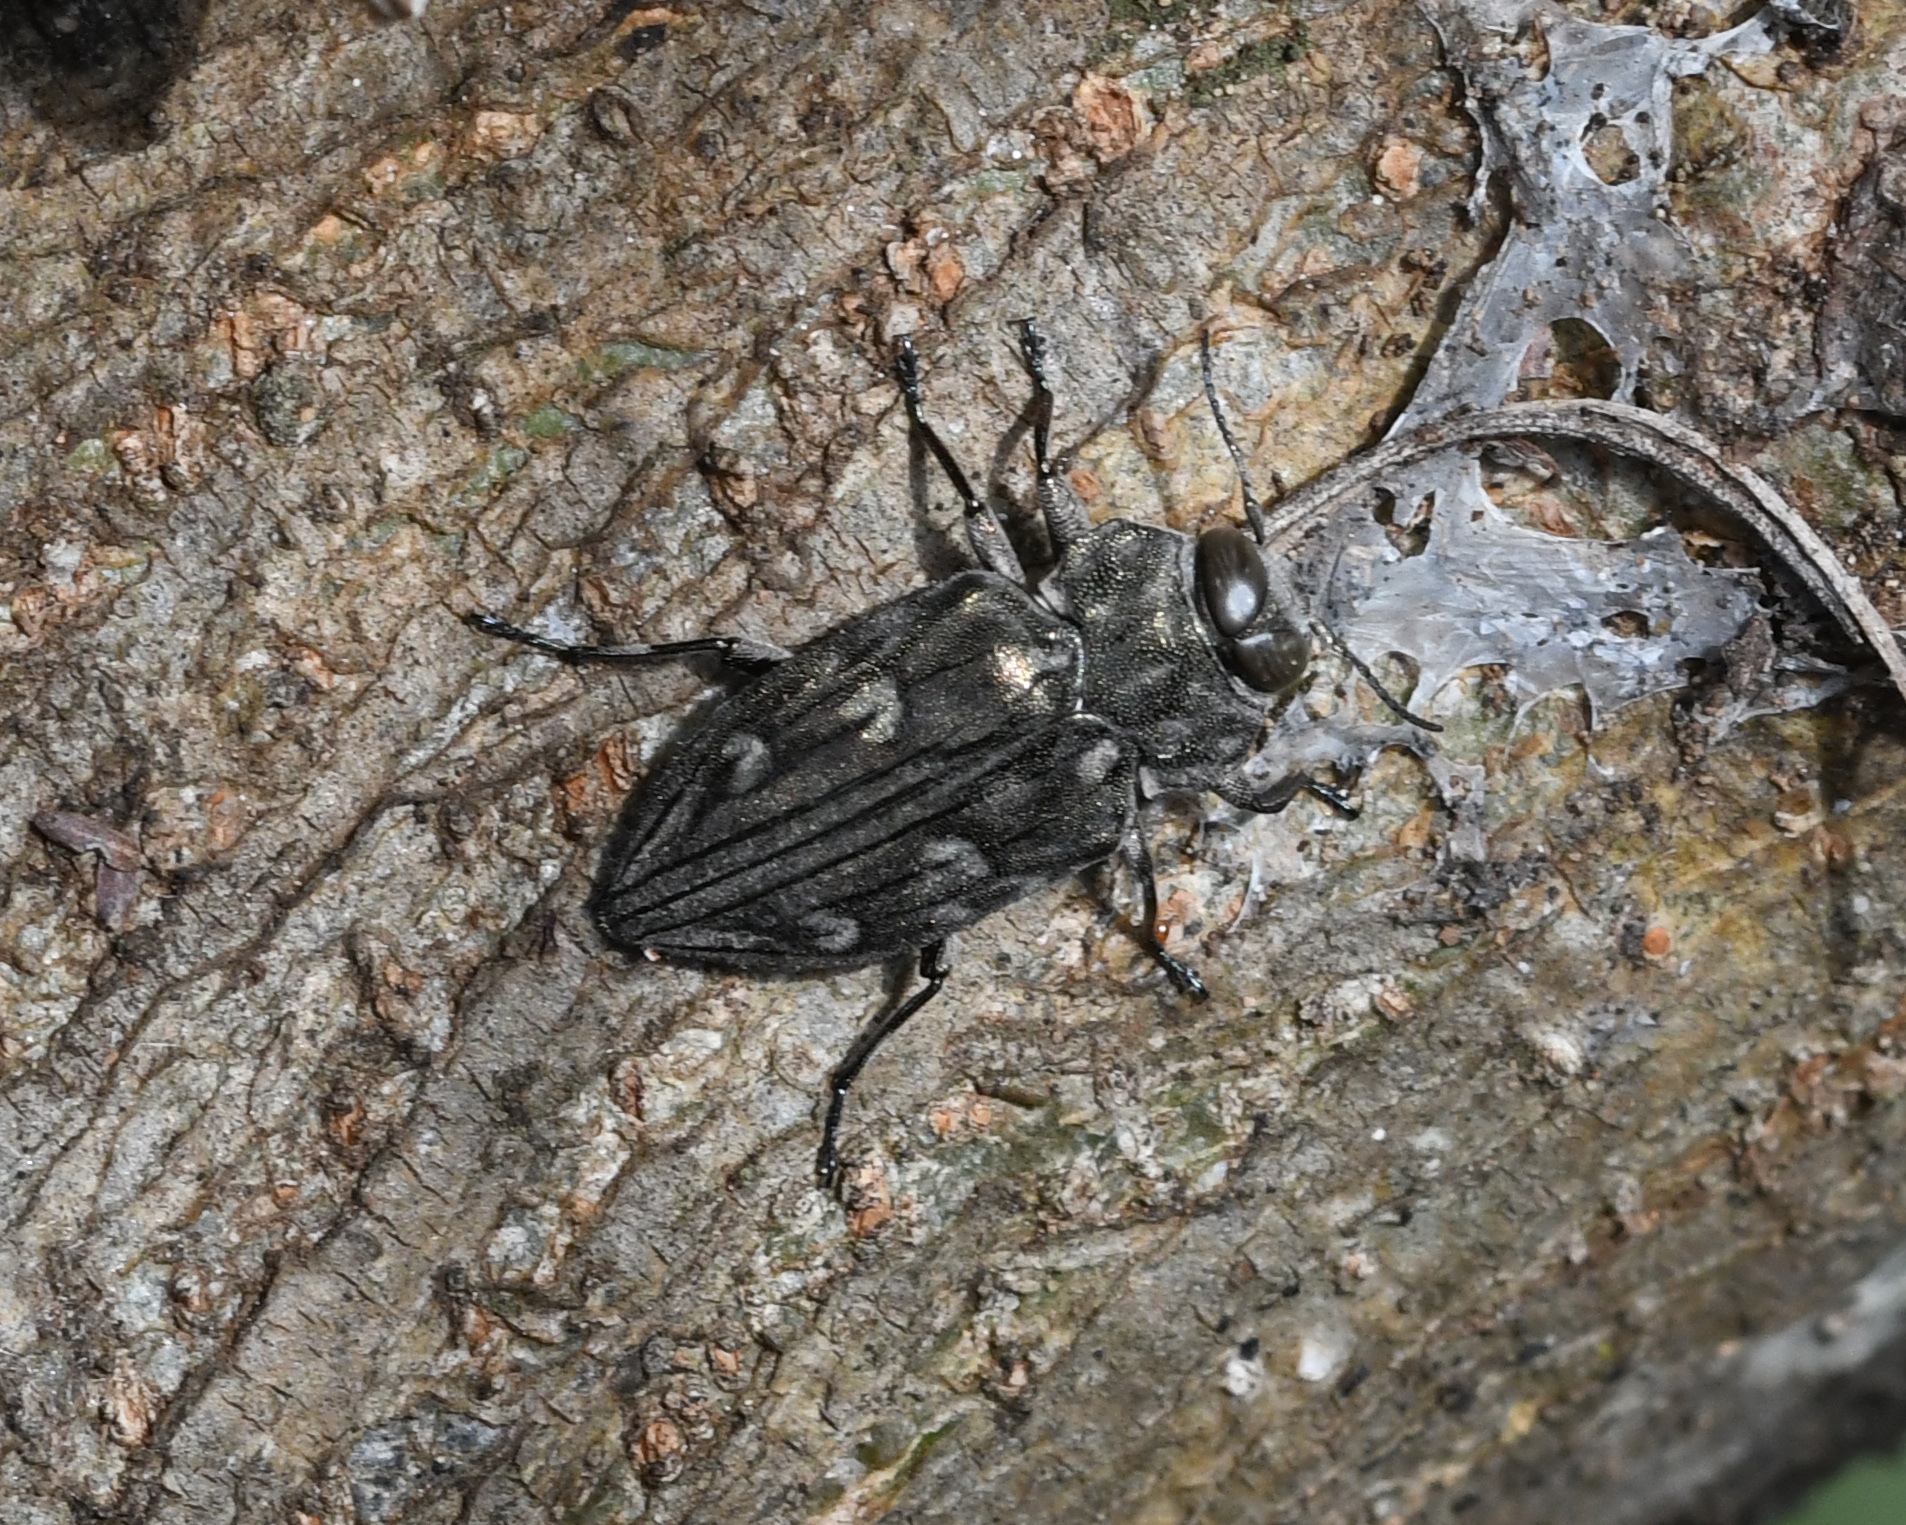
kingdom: Animalia
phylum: Arthropoda
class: Insecta
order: Coleoptera
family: Buprestidae
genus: Chrysobothris
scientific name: Chrysobothris tranquebarica
